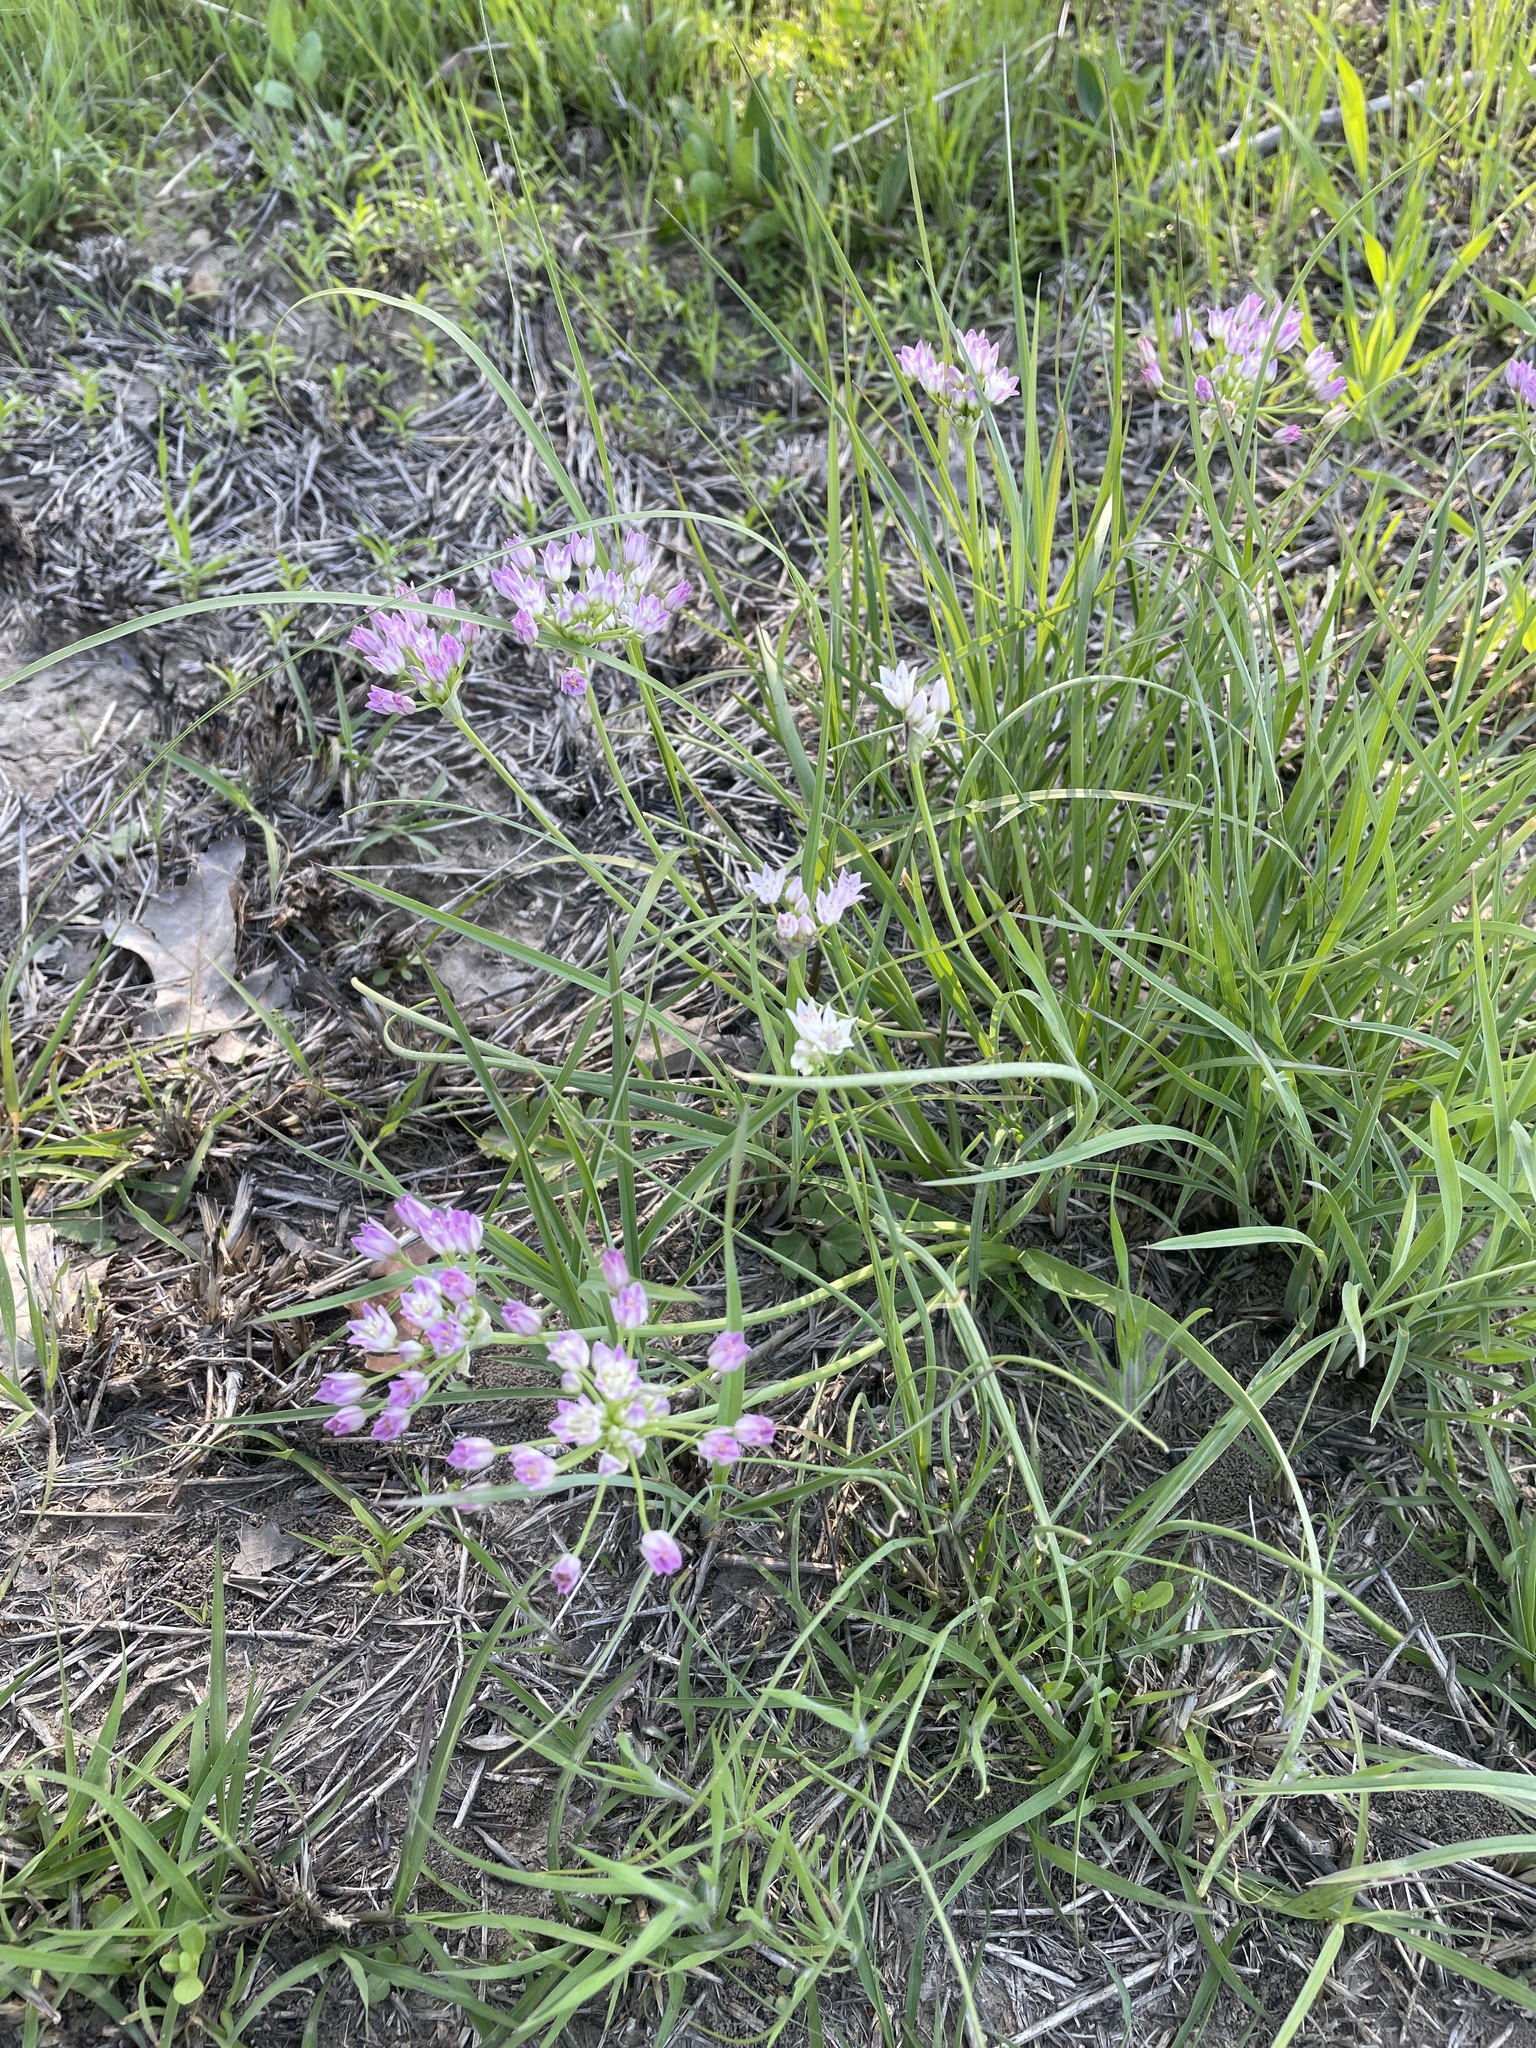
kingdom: Plantae
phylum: Tracheophyta
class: Liliopsida
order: Asparagales
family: Amaryllidaceae
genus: Allium
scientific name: Allium drummondii
